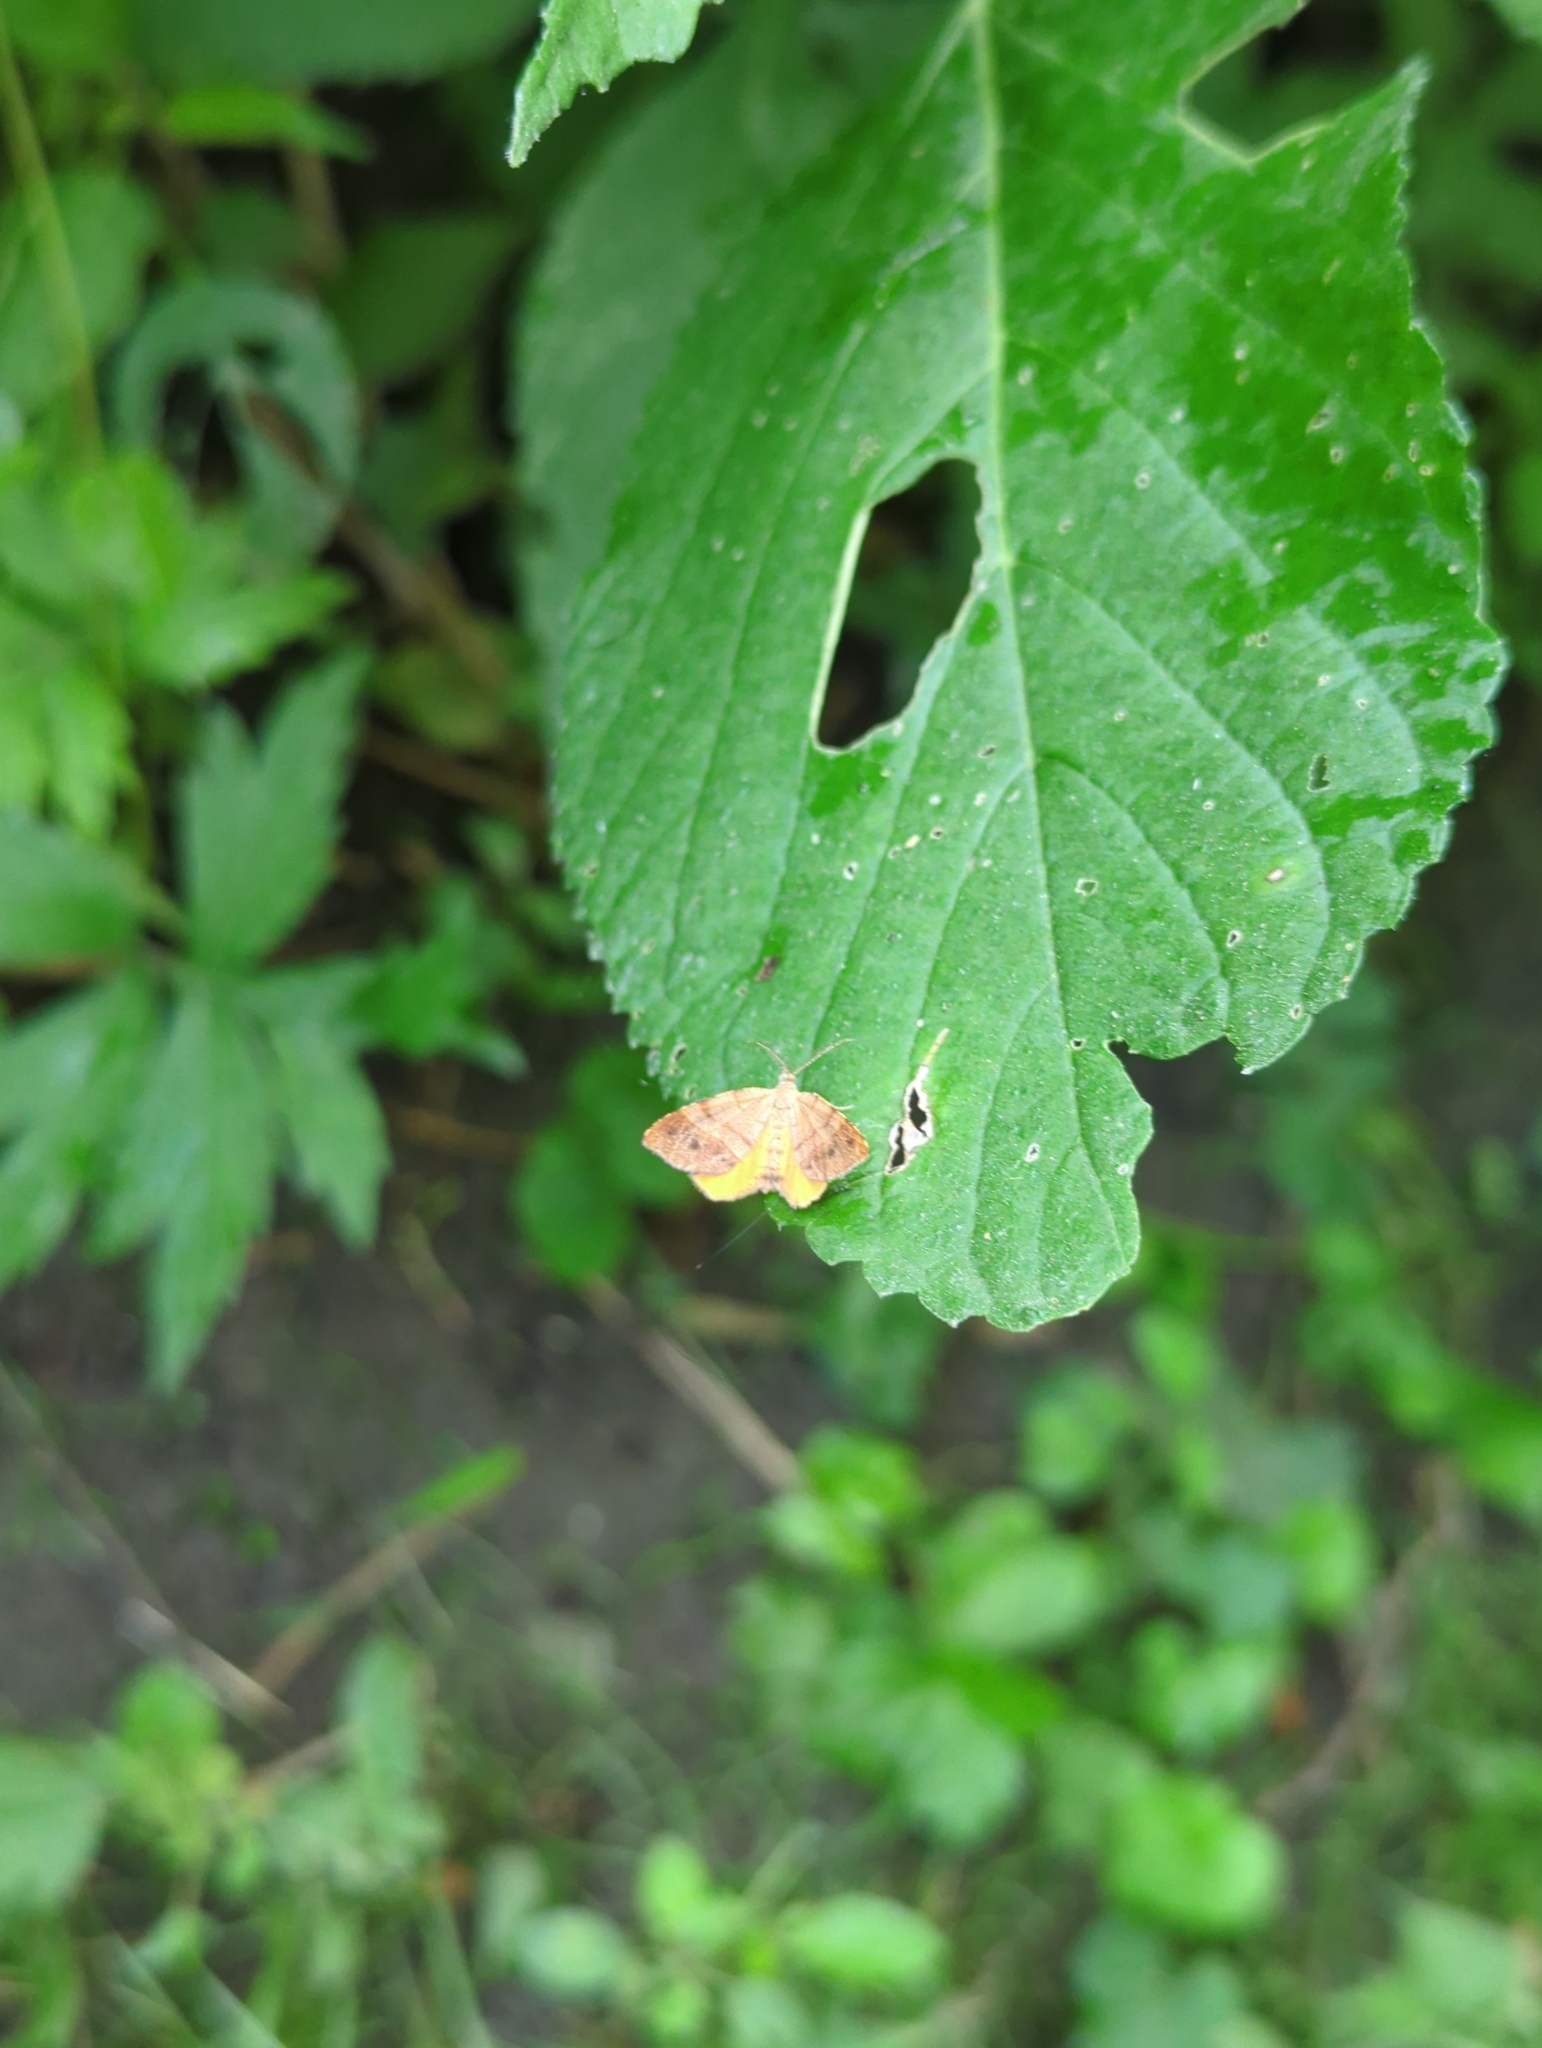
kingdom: Animalia
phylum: Arthropoda
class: Insecta
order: Lepidoptera
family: Geometridae
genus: Mellilla
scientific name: Mellilla xanthometata
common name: Orange wing moth
